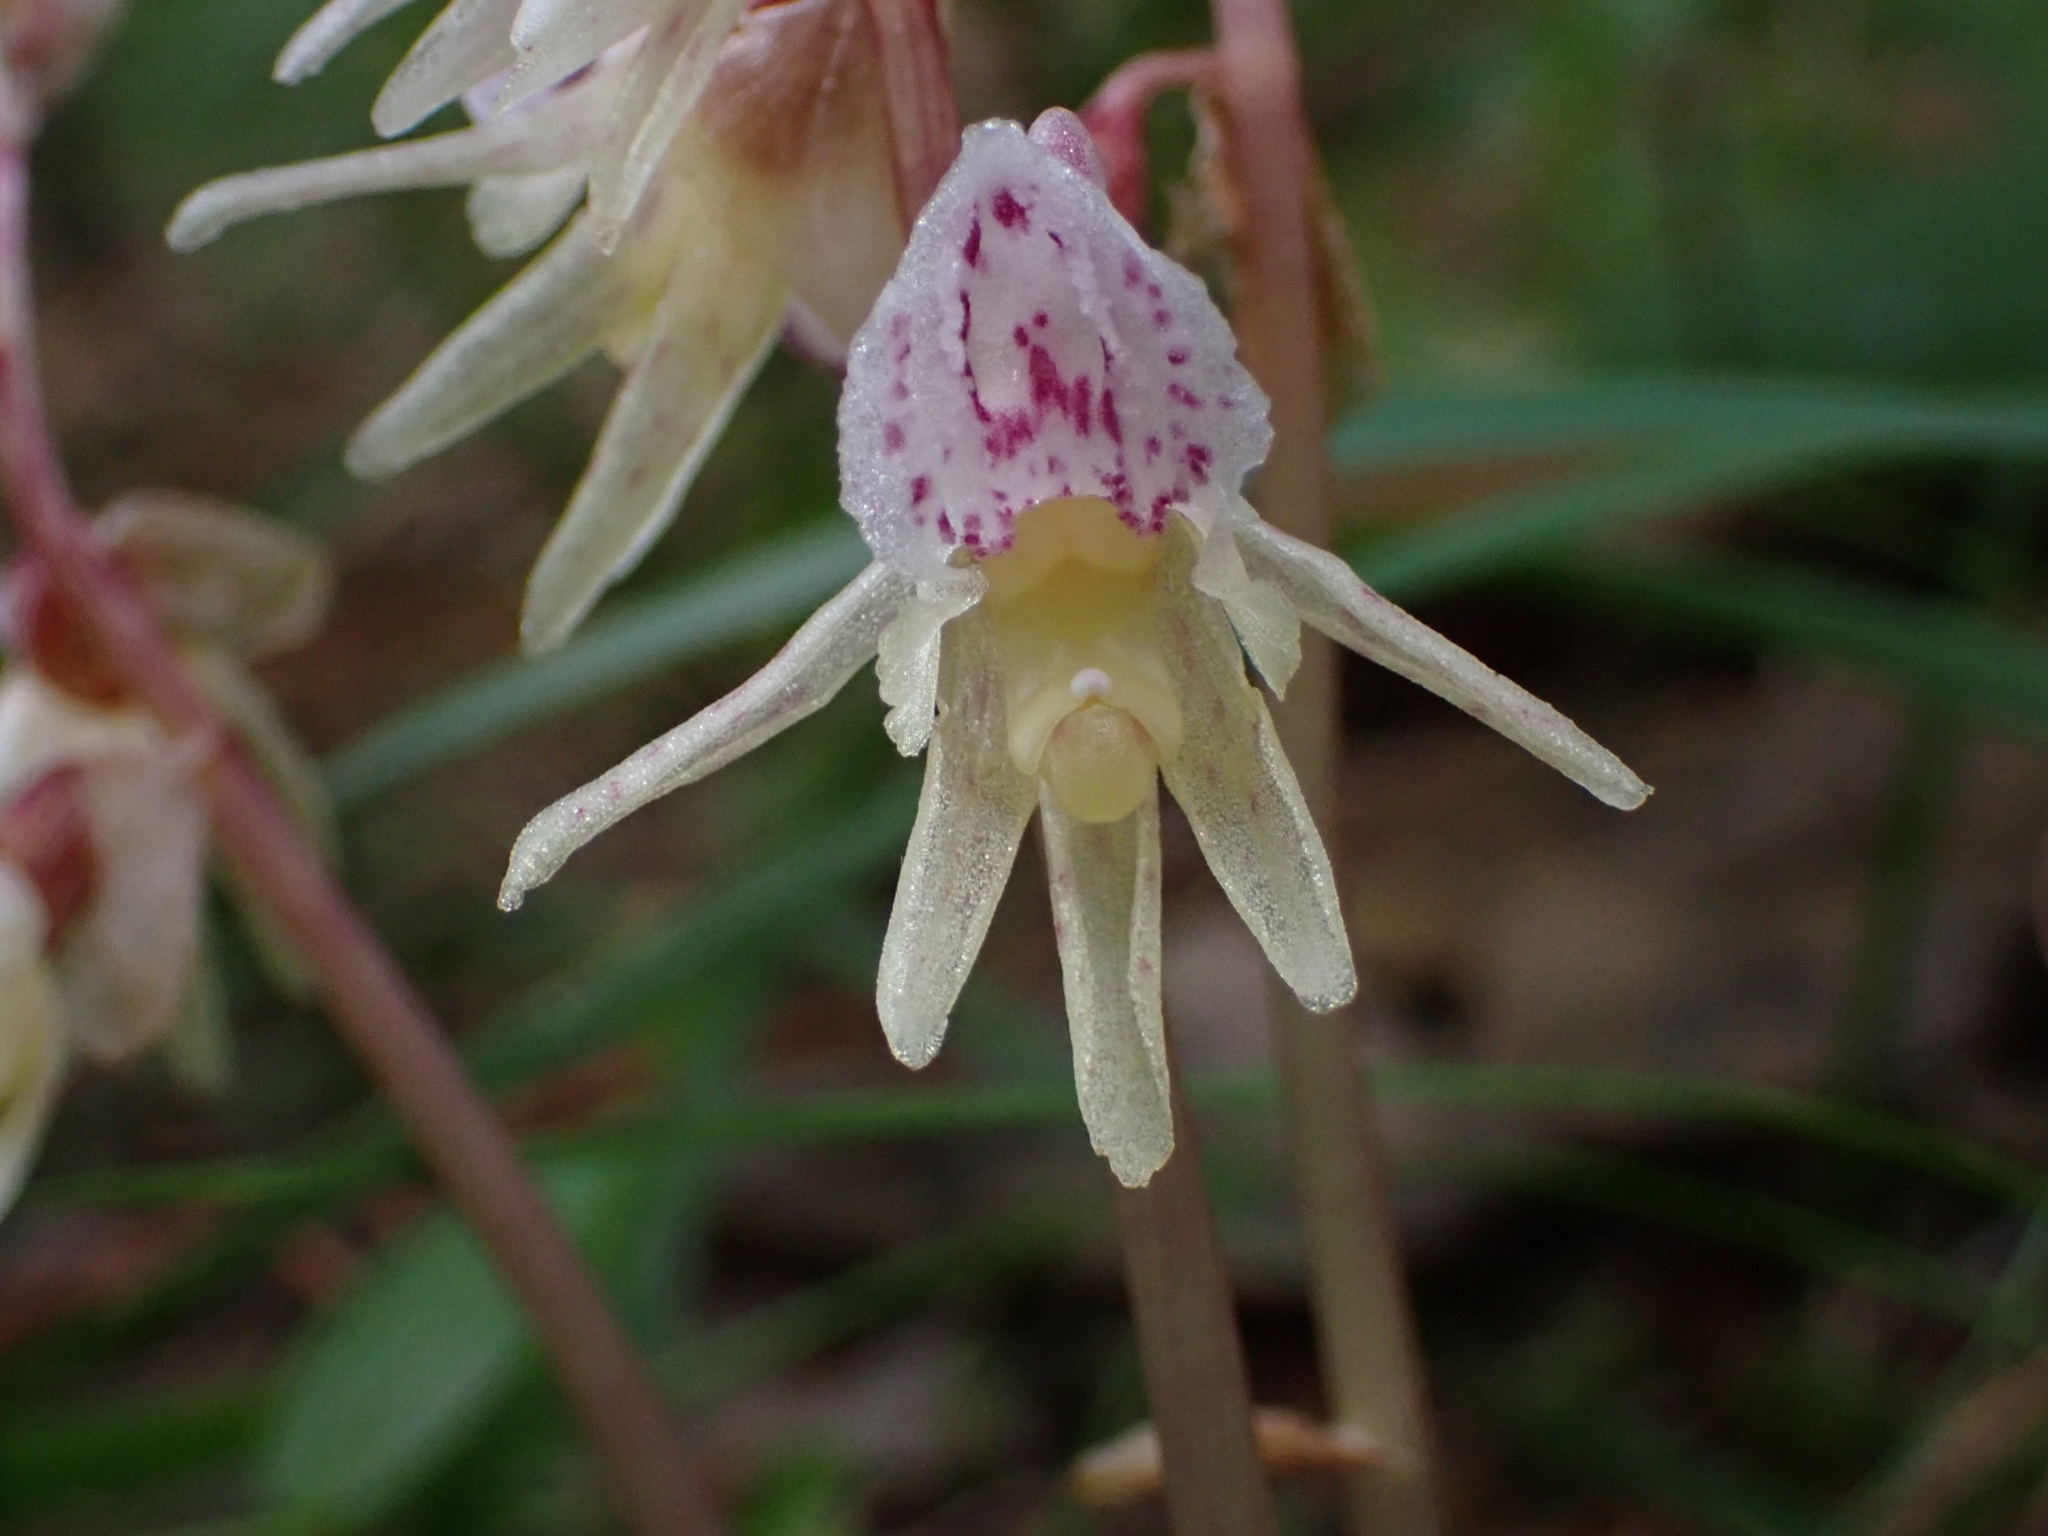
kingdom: Plantae
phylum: Tracheophyta
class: Liliopsida
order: Asparagales
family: Orchidaceae
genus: Epipogium
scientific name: Epipogium aphyllum
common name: Ghost orchid
